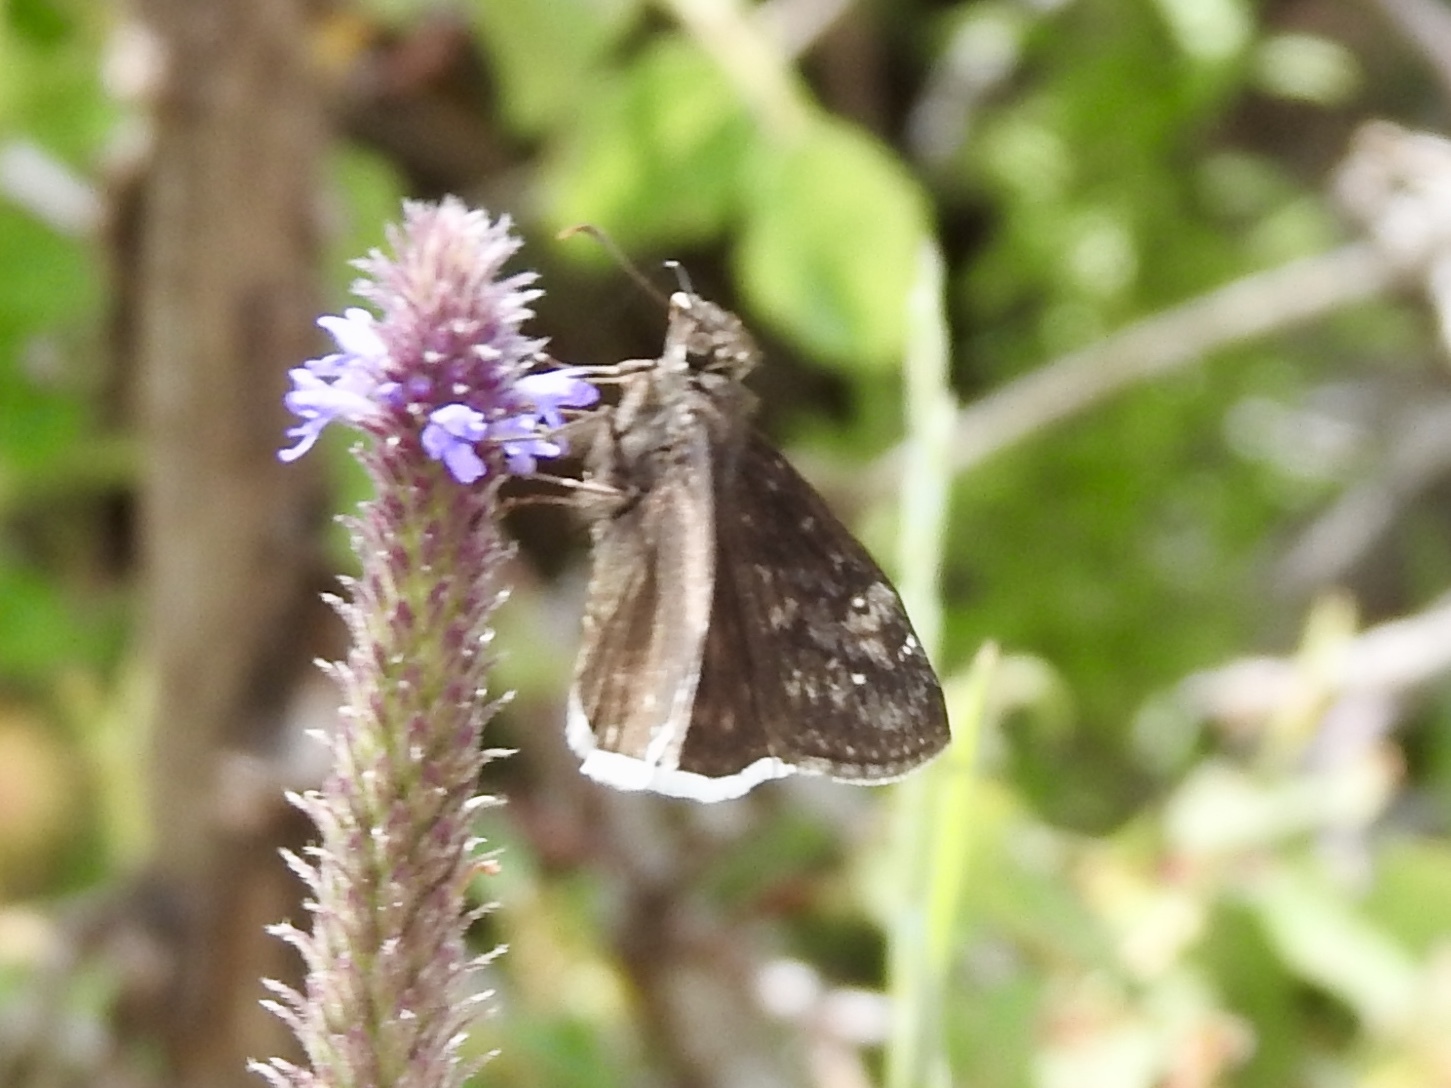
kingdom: Animalia
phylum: Arthropoda
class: Insecta
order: Lepidoptera
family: Hesperiidae
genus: Erynnis
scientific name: Erynnis funeralis
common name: Funereal duskywing
